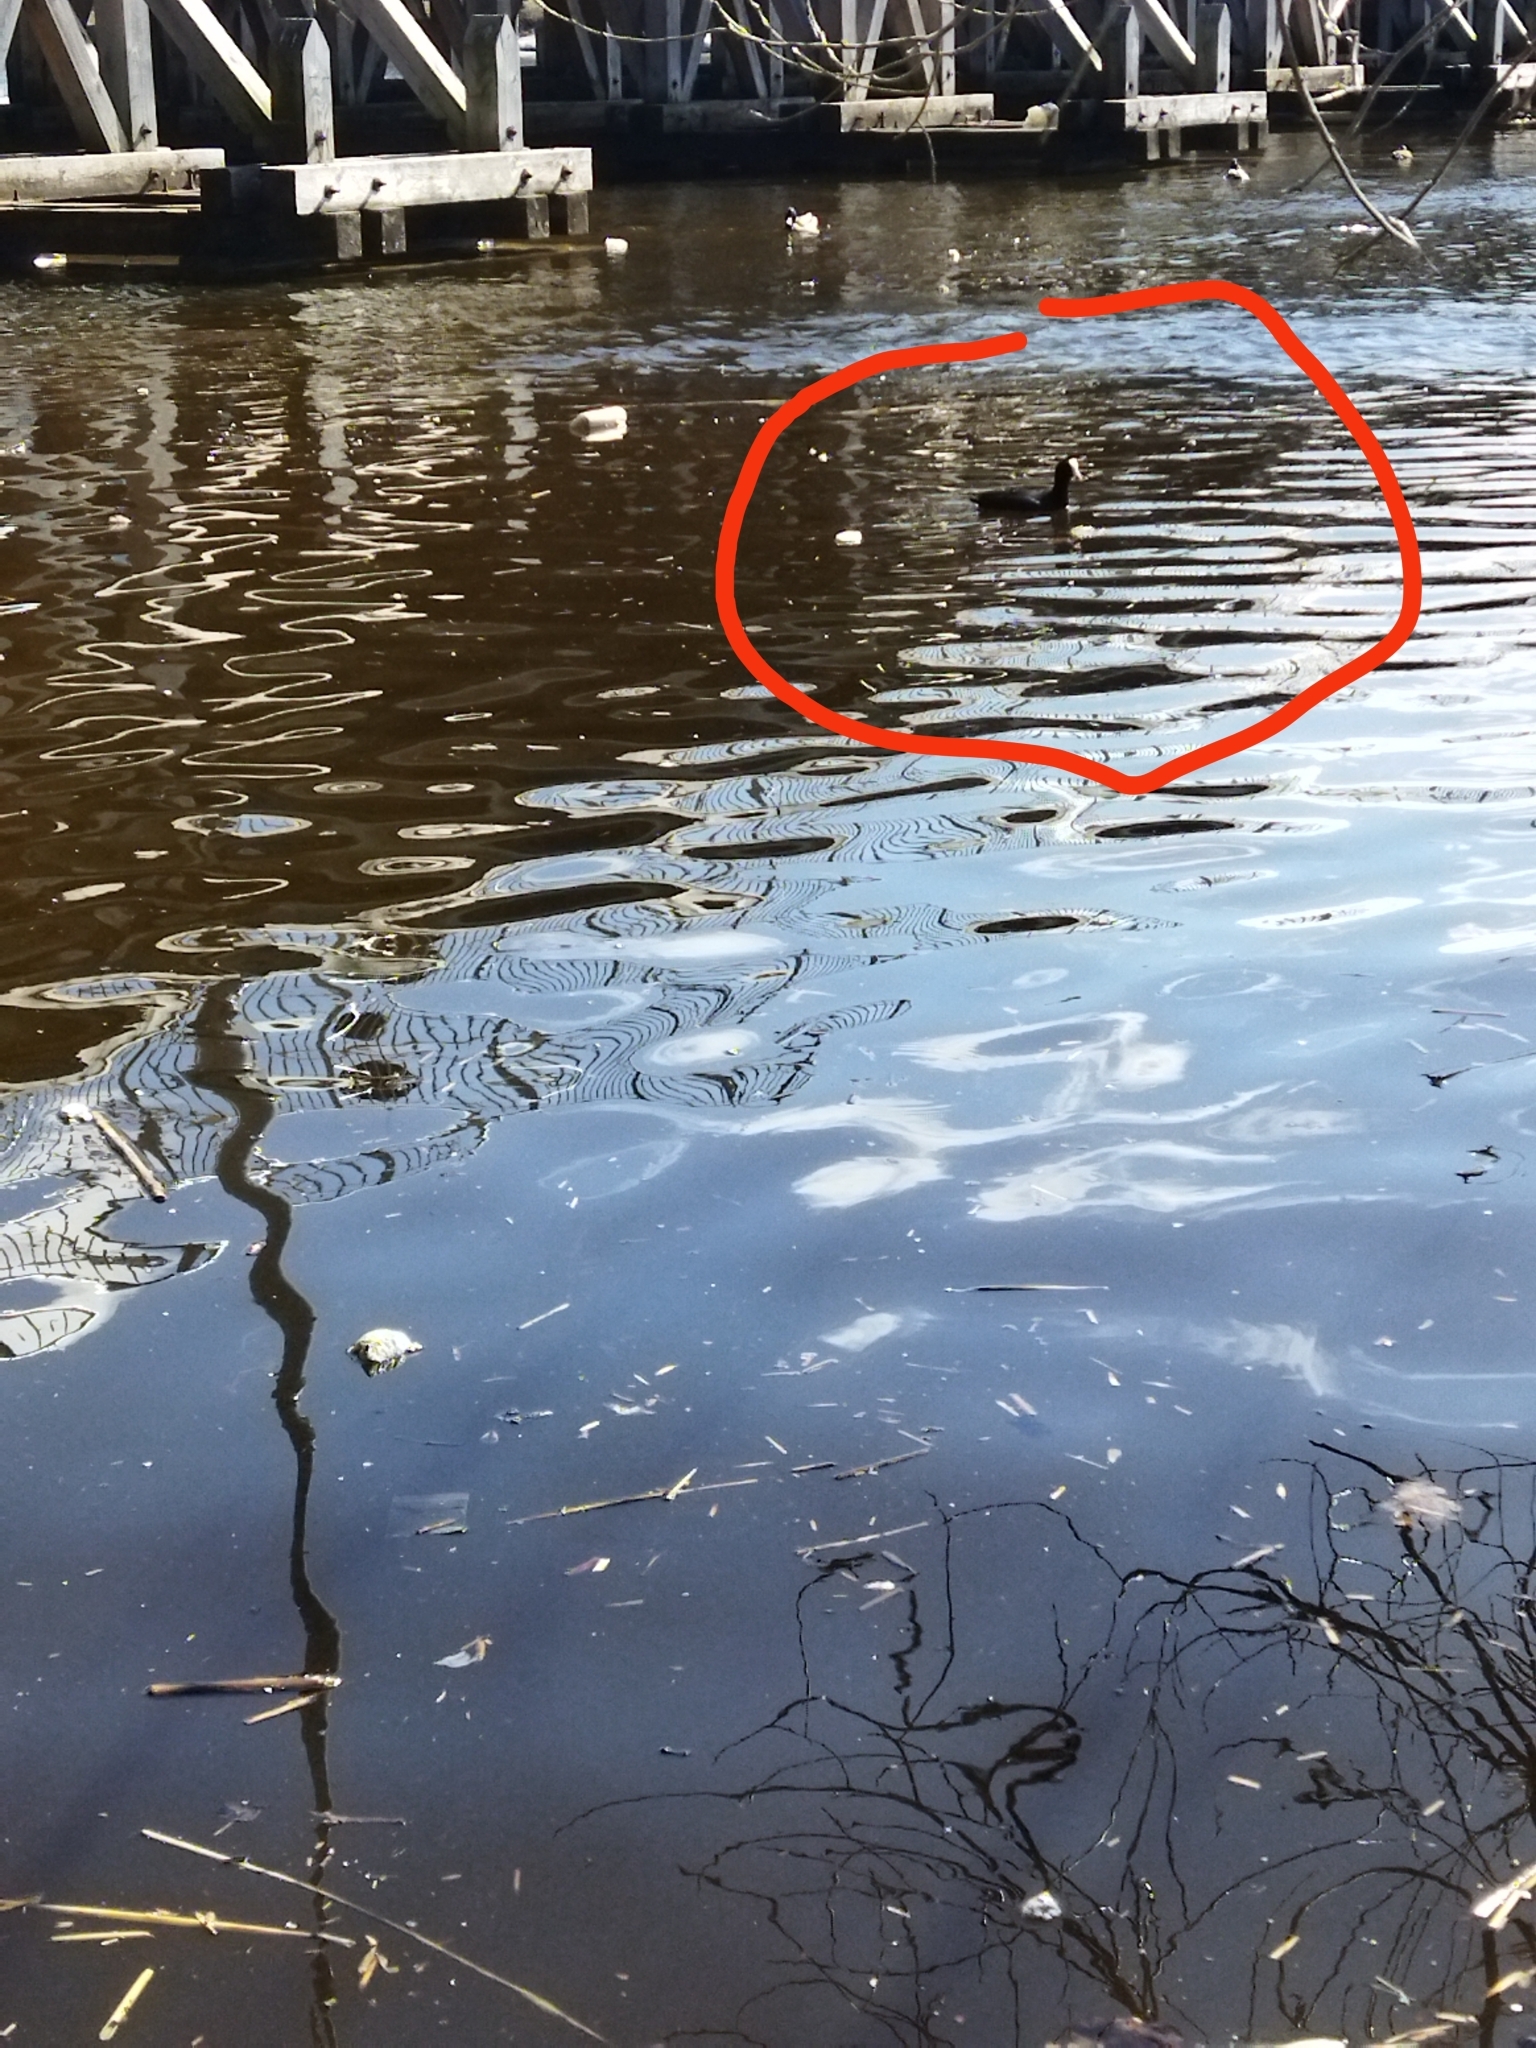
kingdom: Animalia
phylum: Chordata
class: Aves
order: Gruiformes
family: Rallidae
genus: Fulica
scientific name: Fulica atra
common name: Eurasian coot
